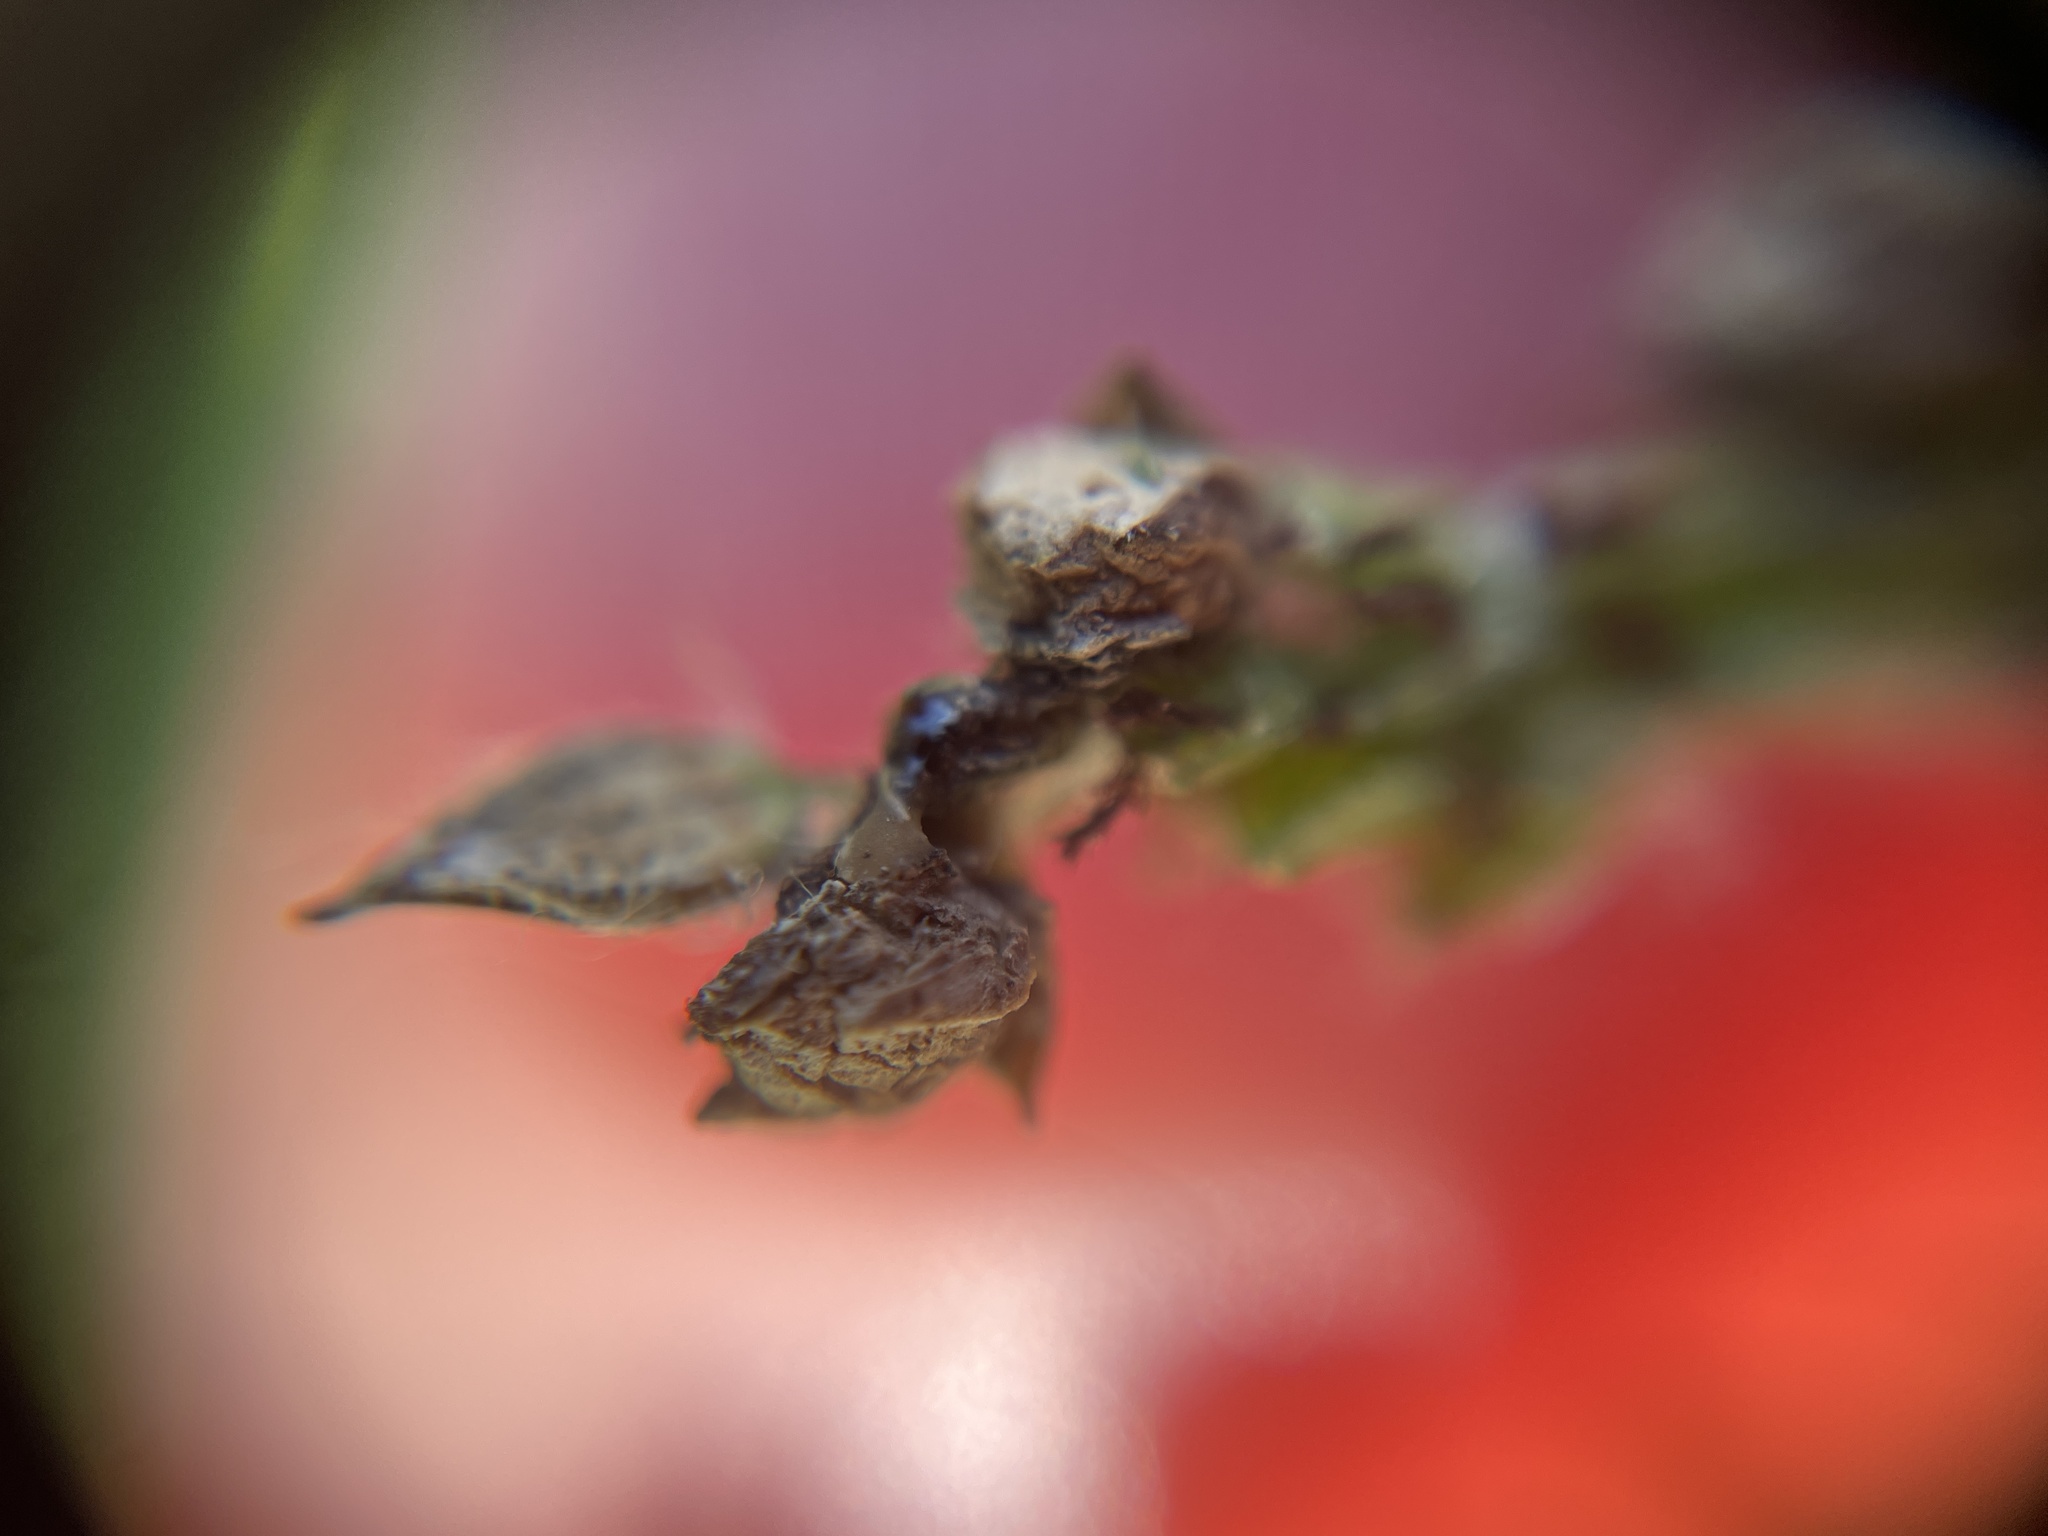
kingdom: Fungi
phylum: Ascomycota
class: Sordariomycetes
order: Hypocreales
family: Clavicipitaceae
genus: Claviceps
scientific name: Claviceps paspali
